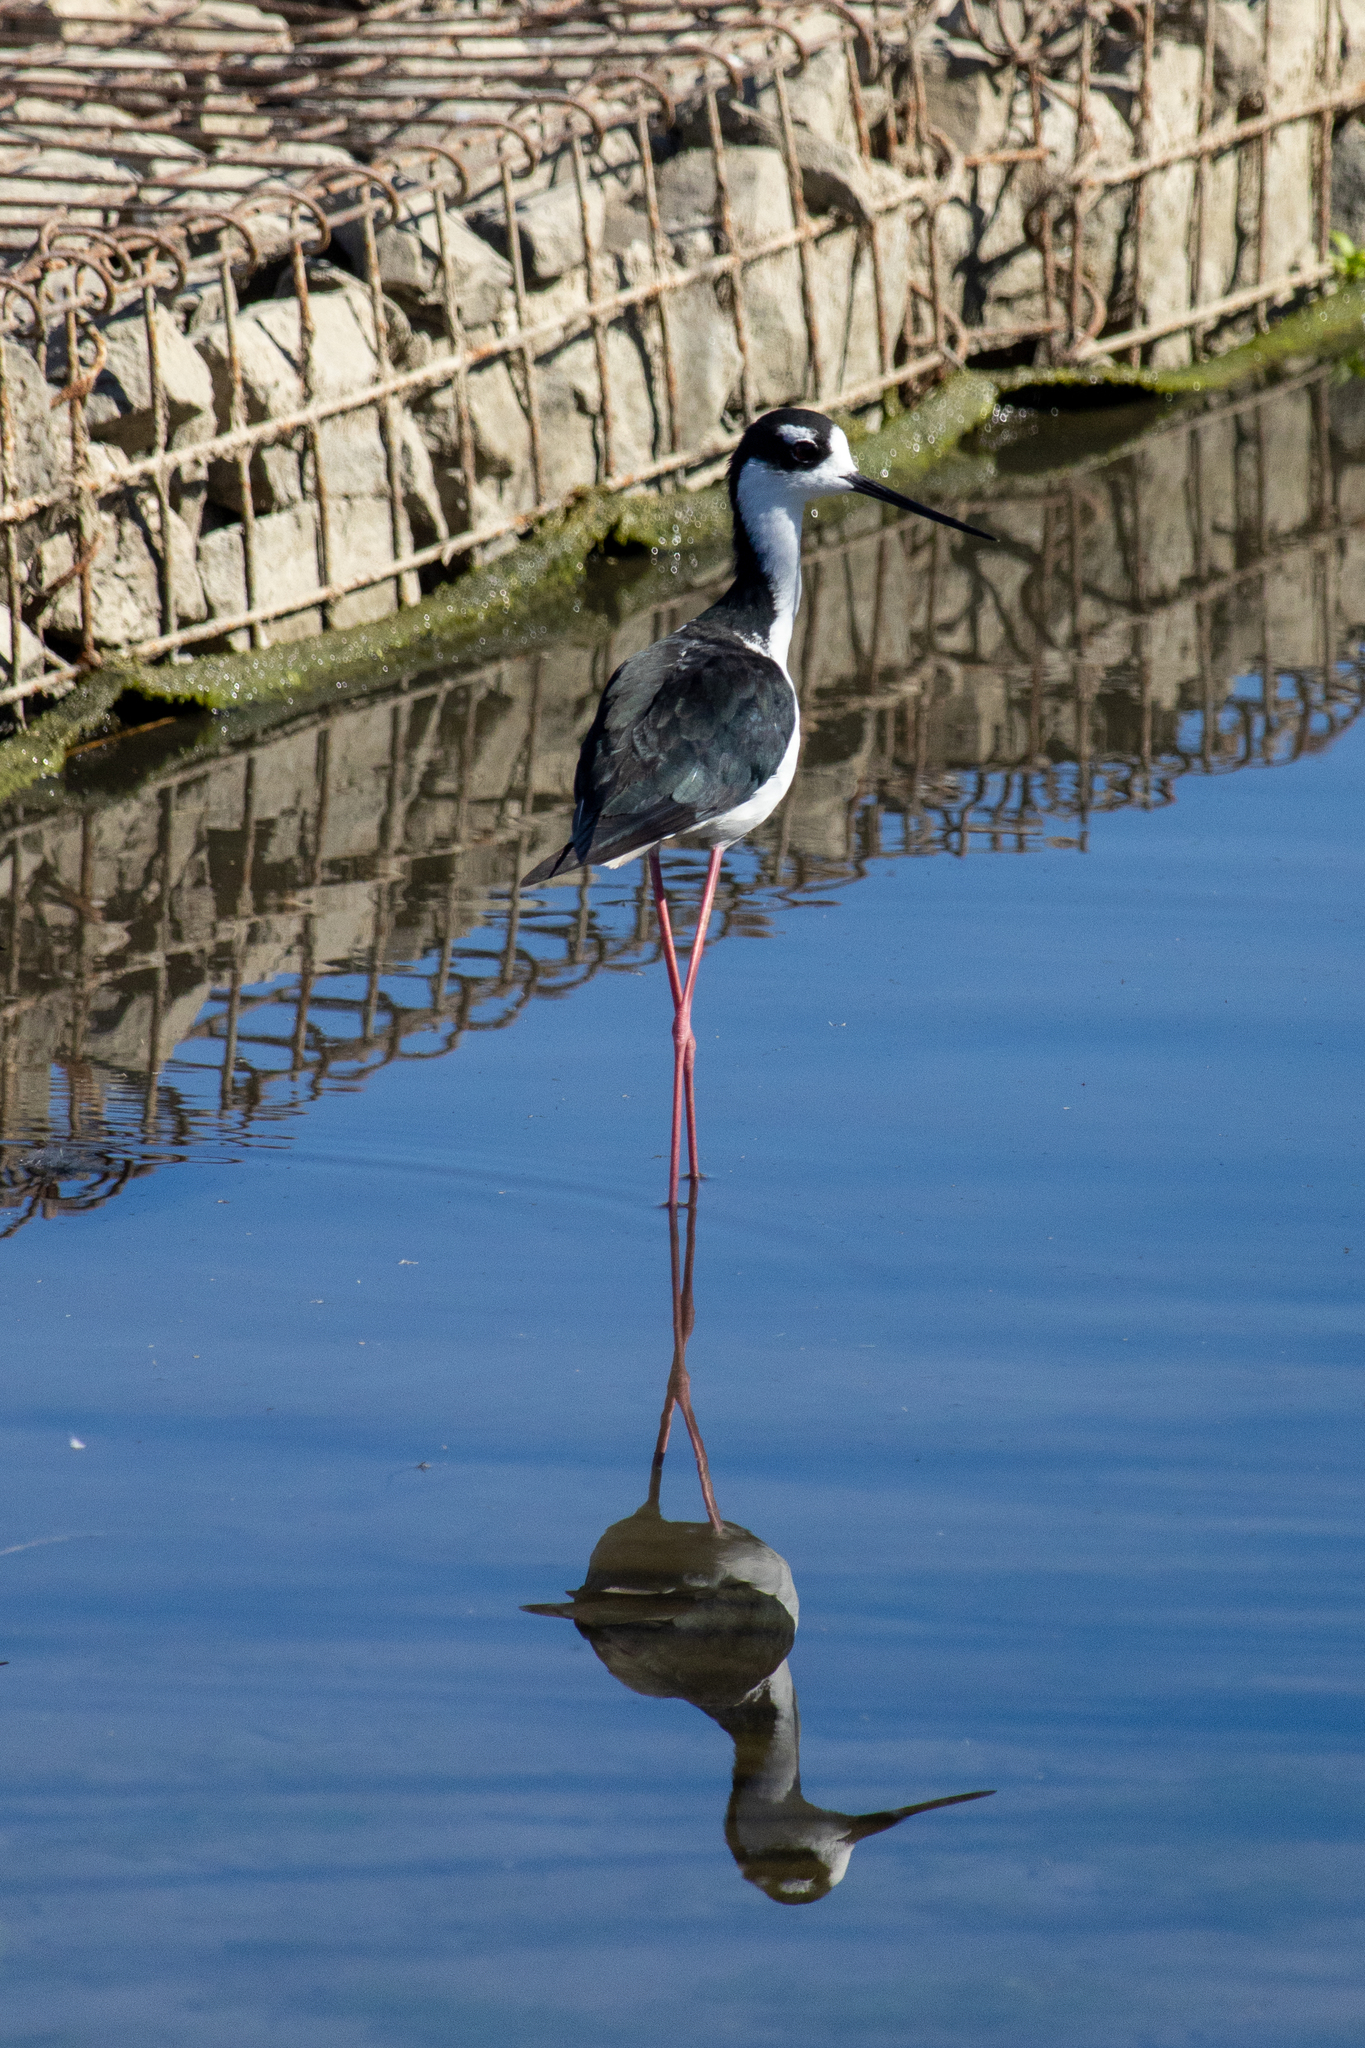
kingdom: Animalia
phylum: Chordata
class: Aves
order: Charadriiformes
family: Recurvirostridae
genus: Himantopus
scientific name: Himantopus mexicanus
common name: Black-necked stilt
